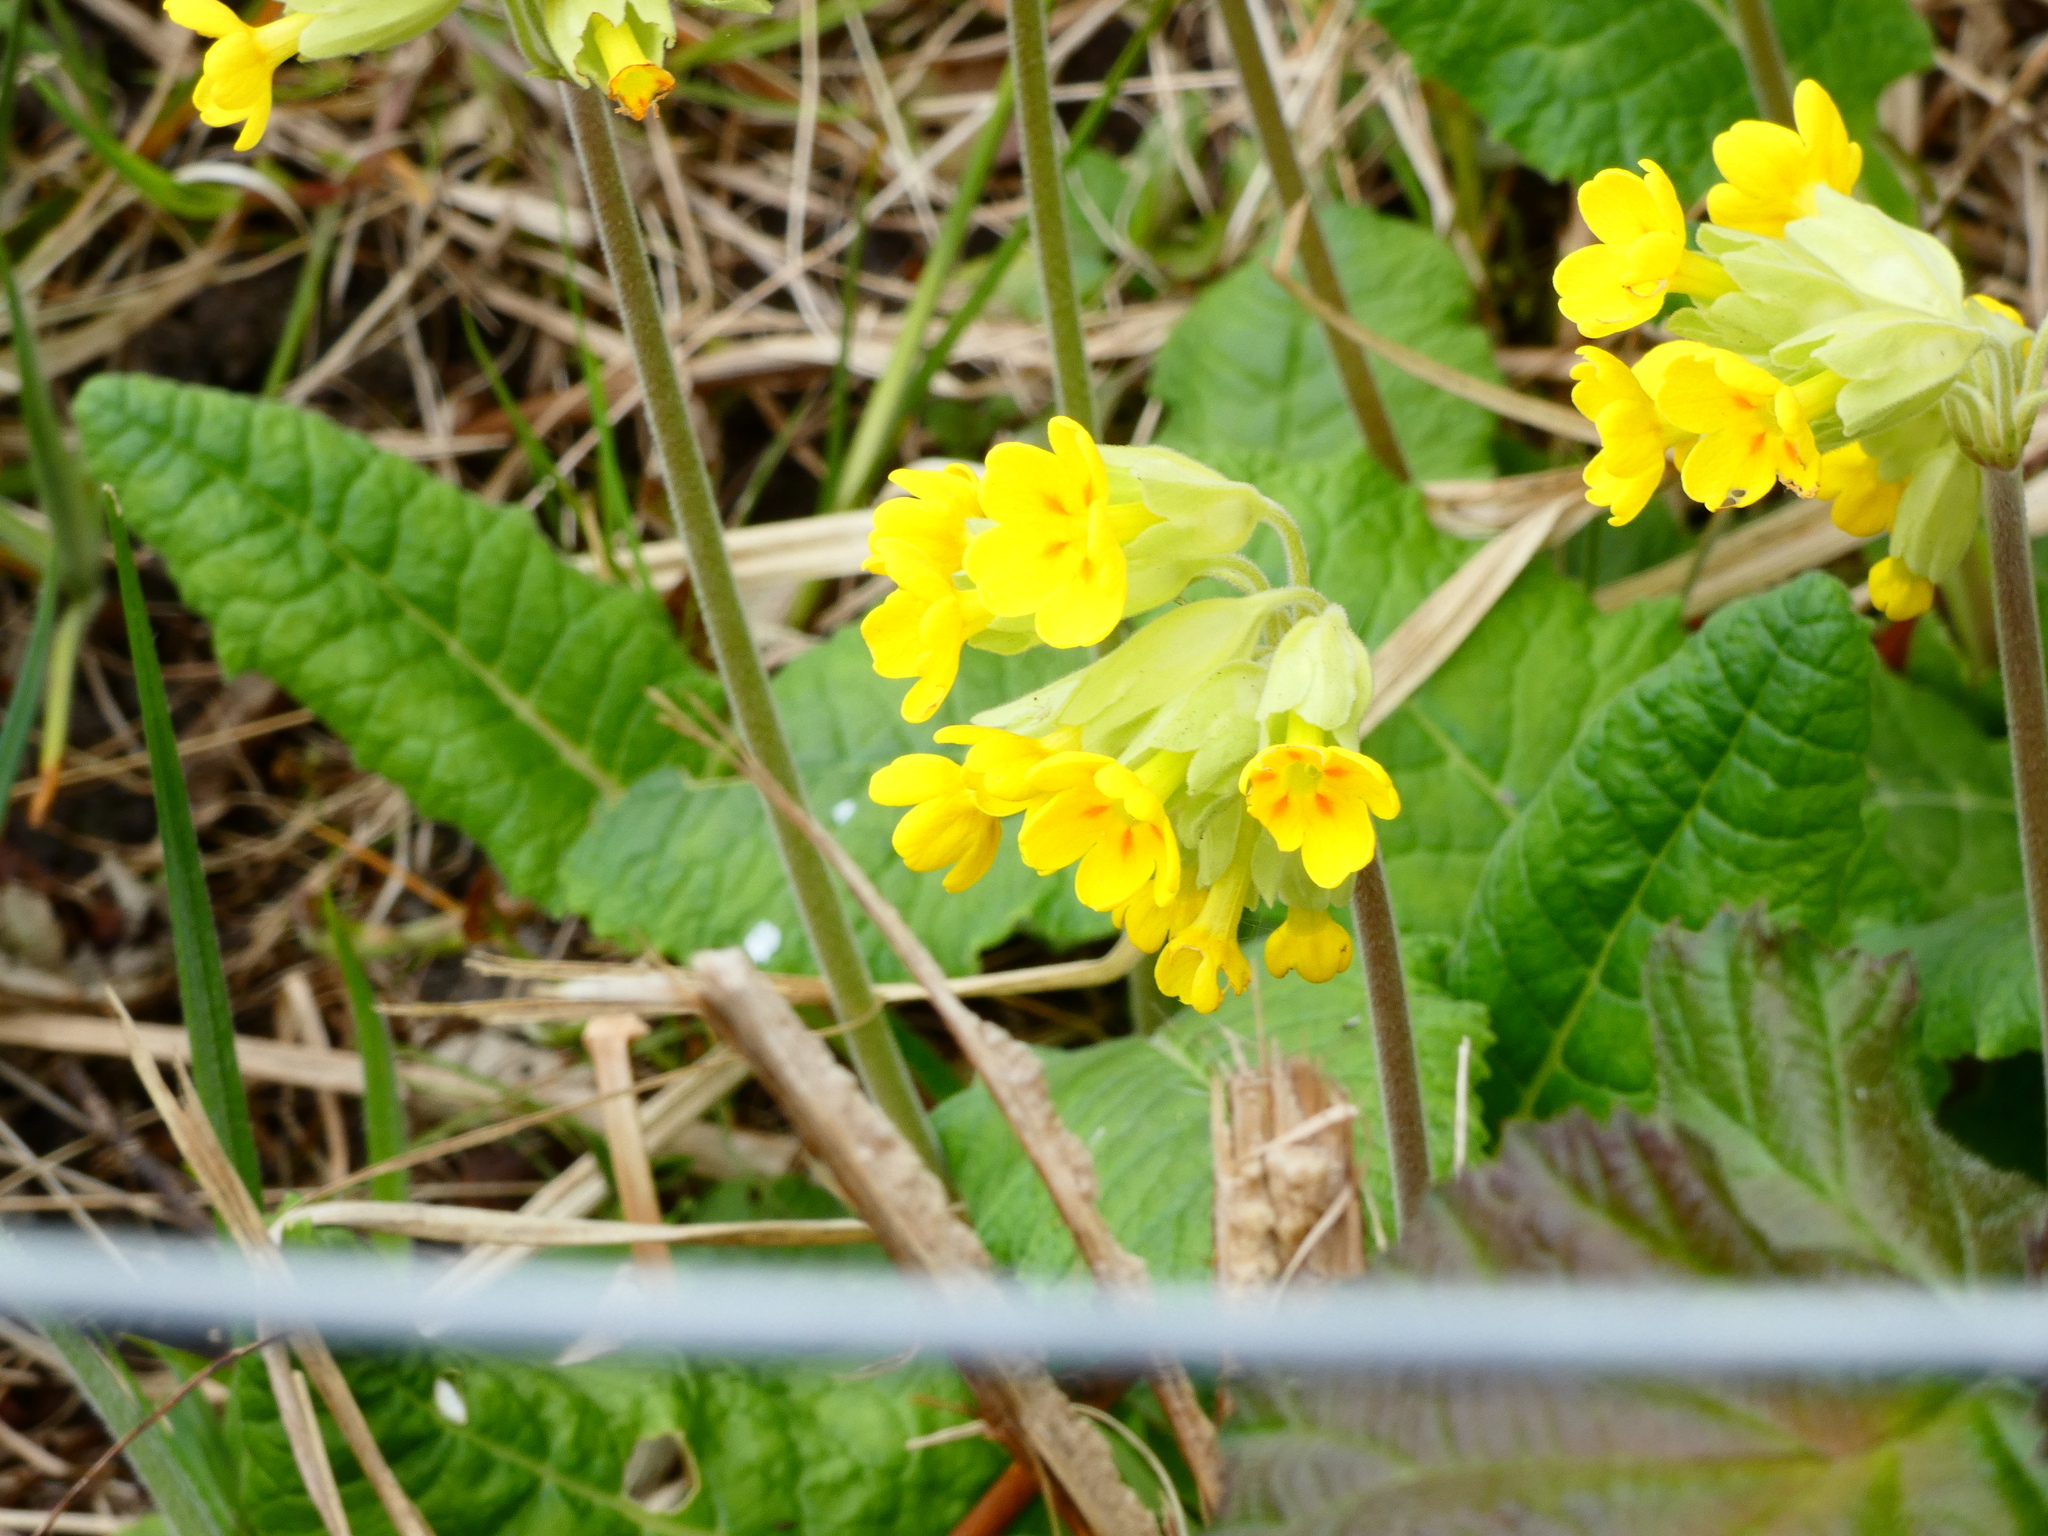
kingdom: Plantae
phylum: Tracheophyta
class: Magnoliopsida
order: Ericales
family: Primulaceae
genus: Primula
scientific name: Primula veris
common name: Cowslip
